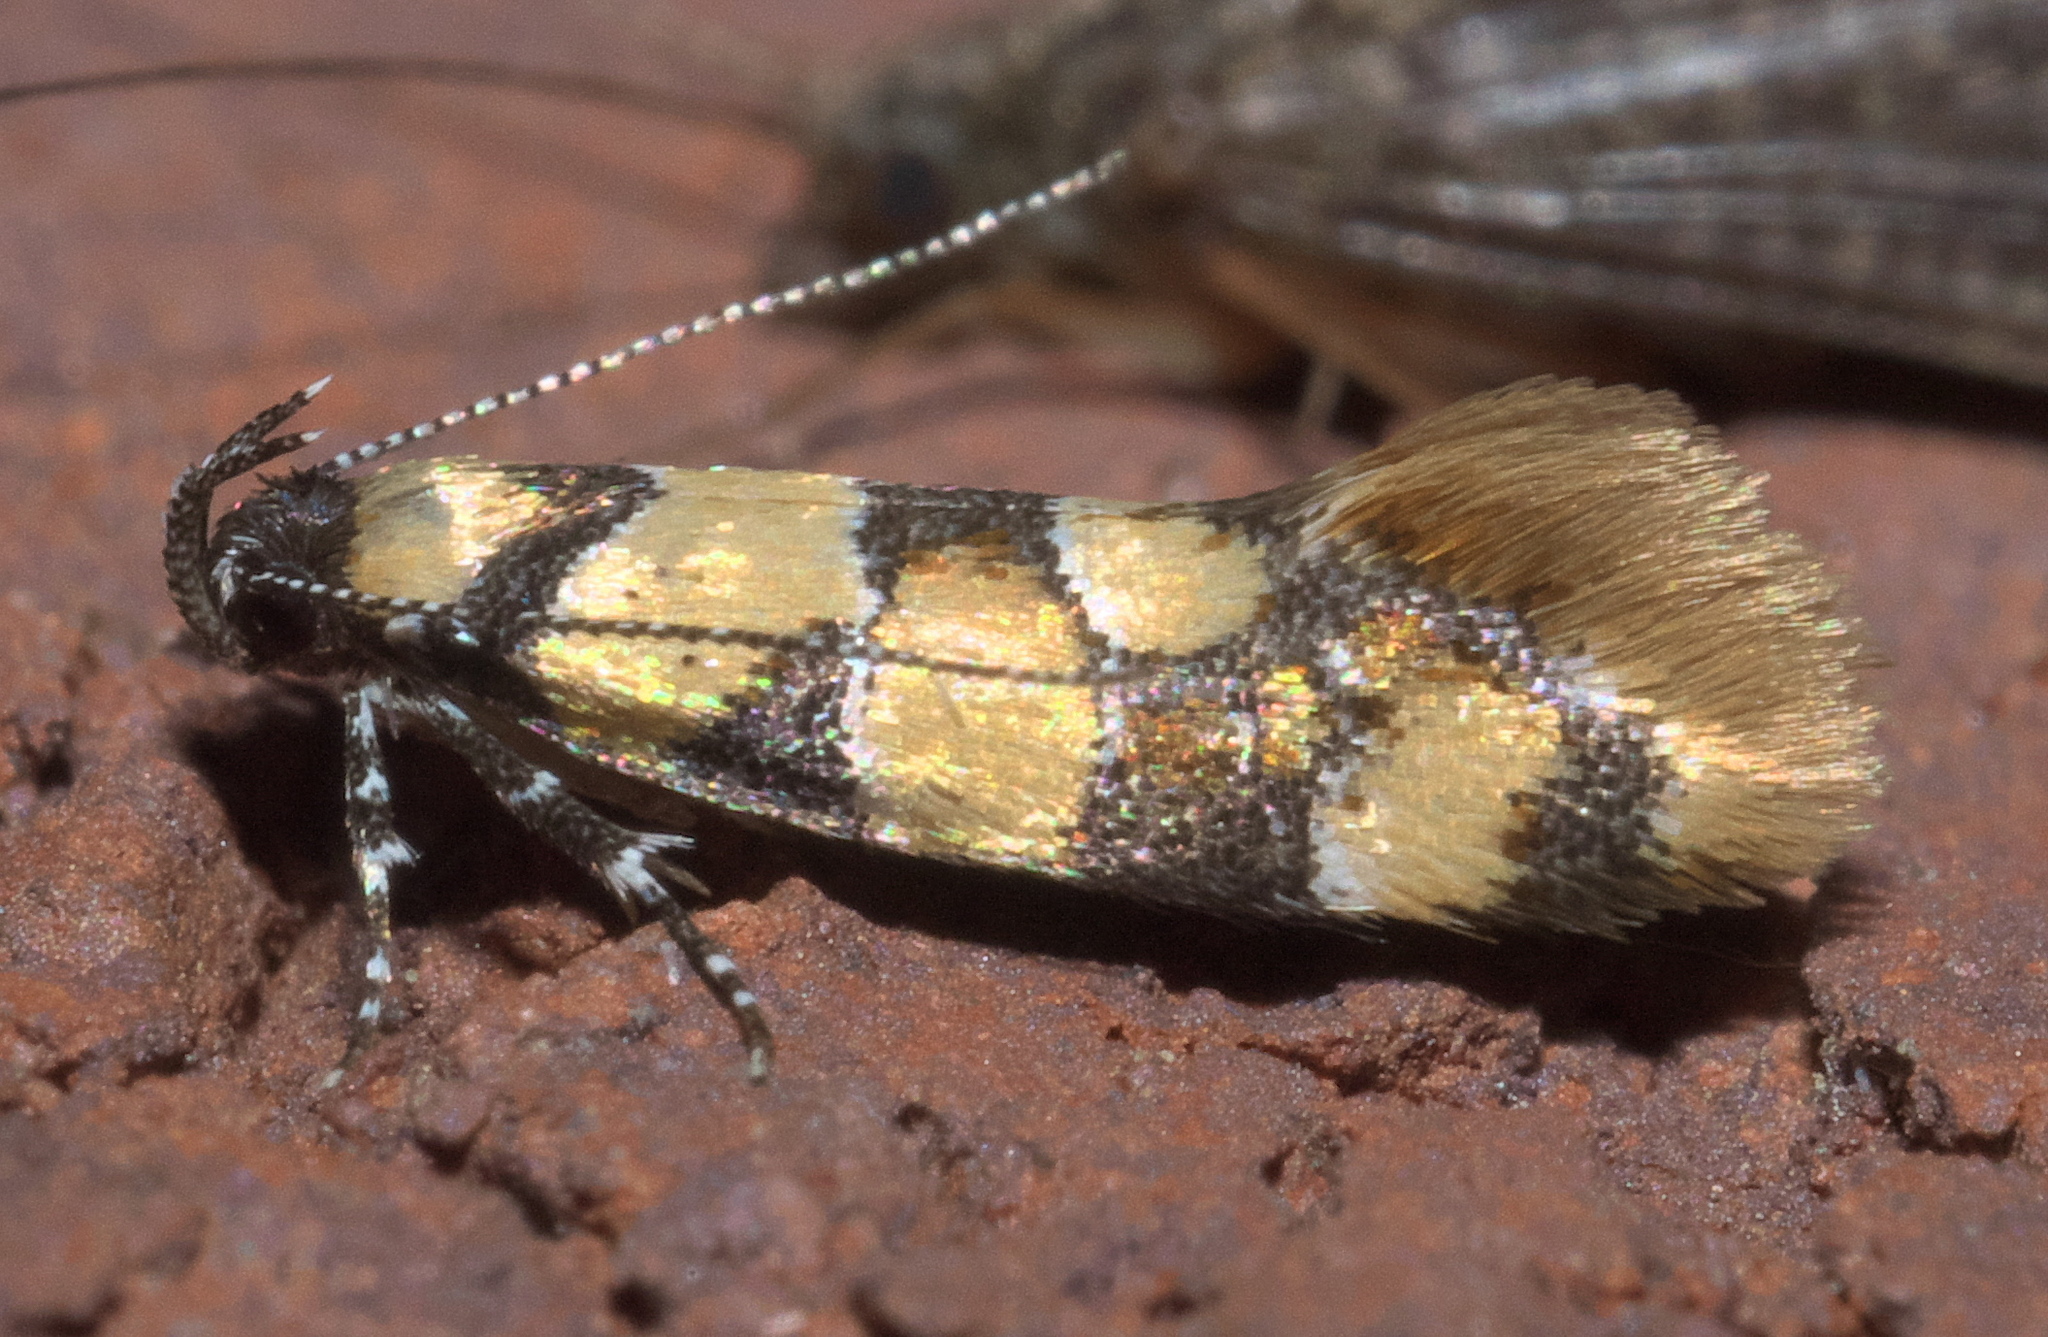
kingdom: Animalia
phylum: Arthropoda
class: Insecta
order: Lepidoptera
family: Oecophoridae
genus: Decantha
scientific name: Decantha borkhausenii
